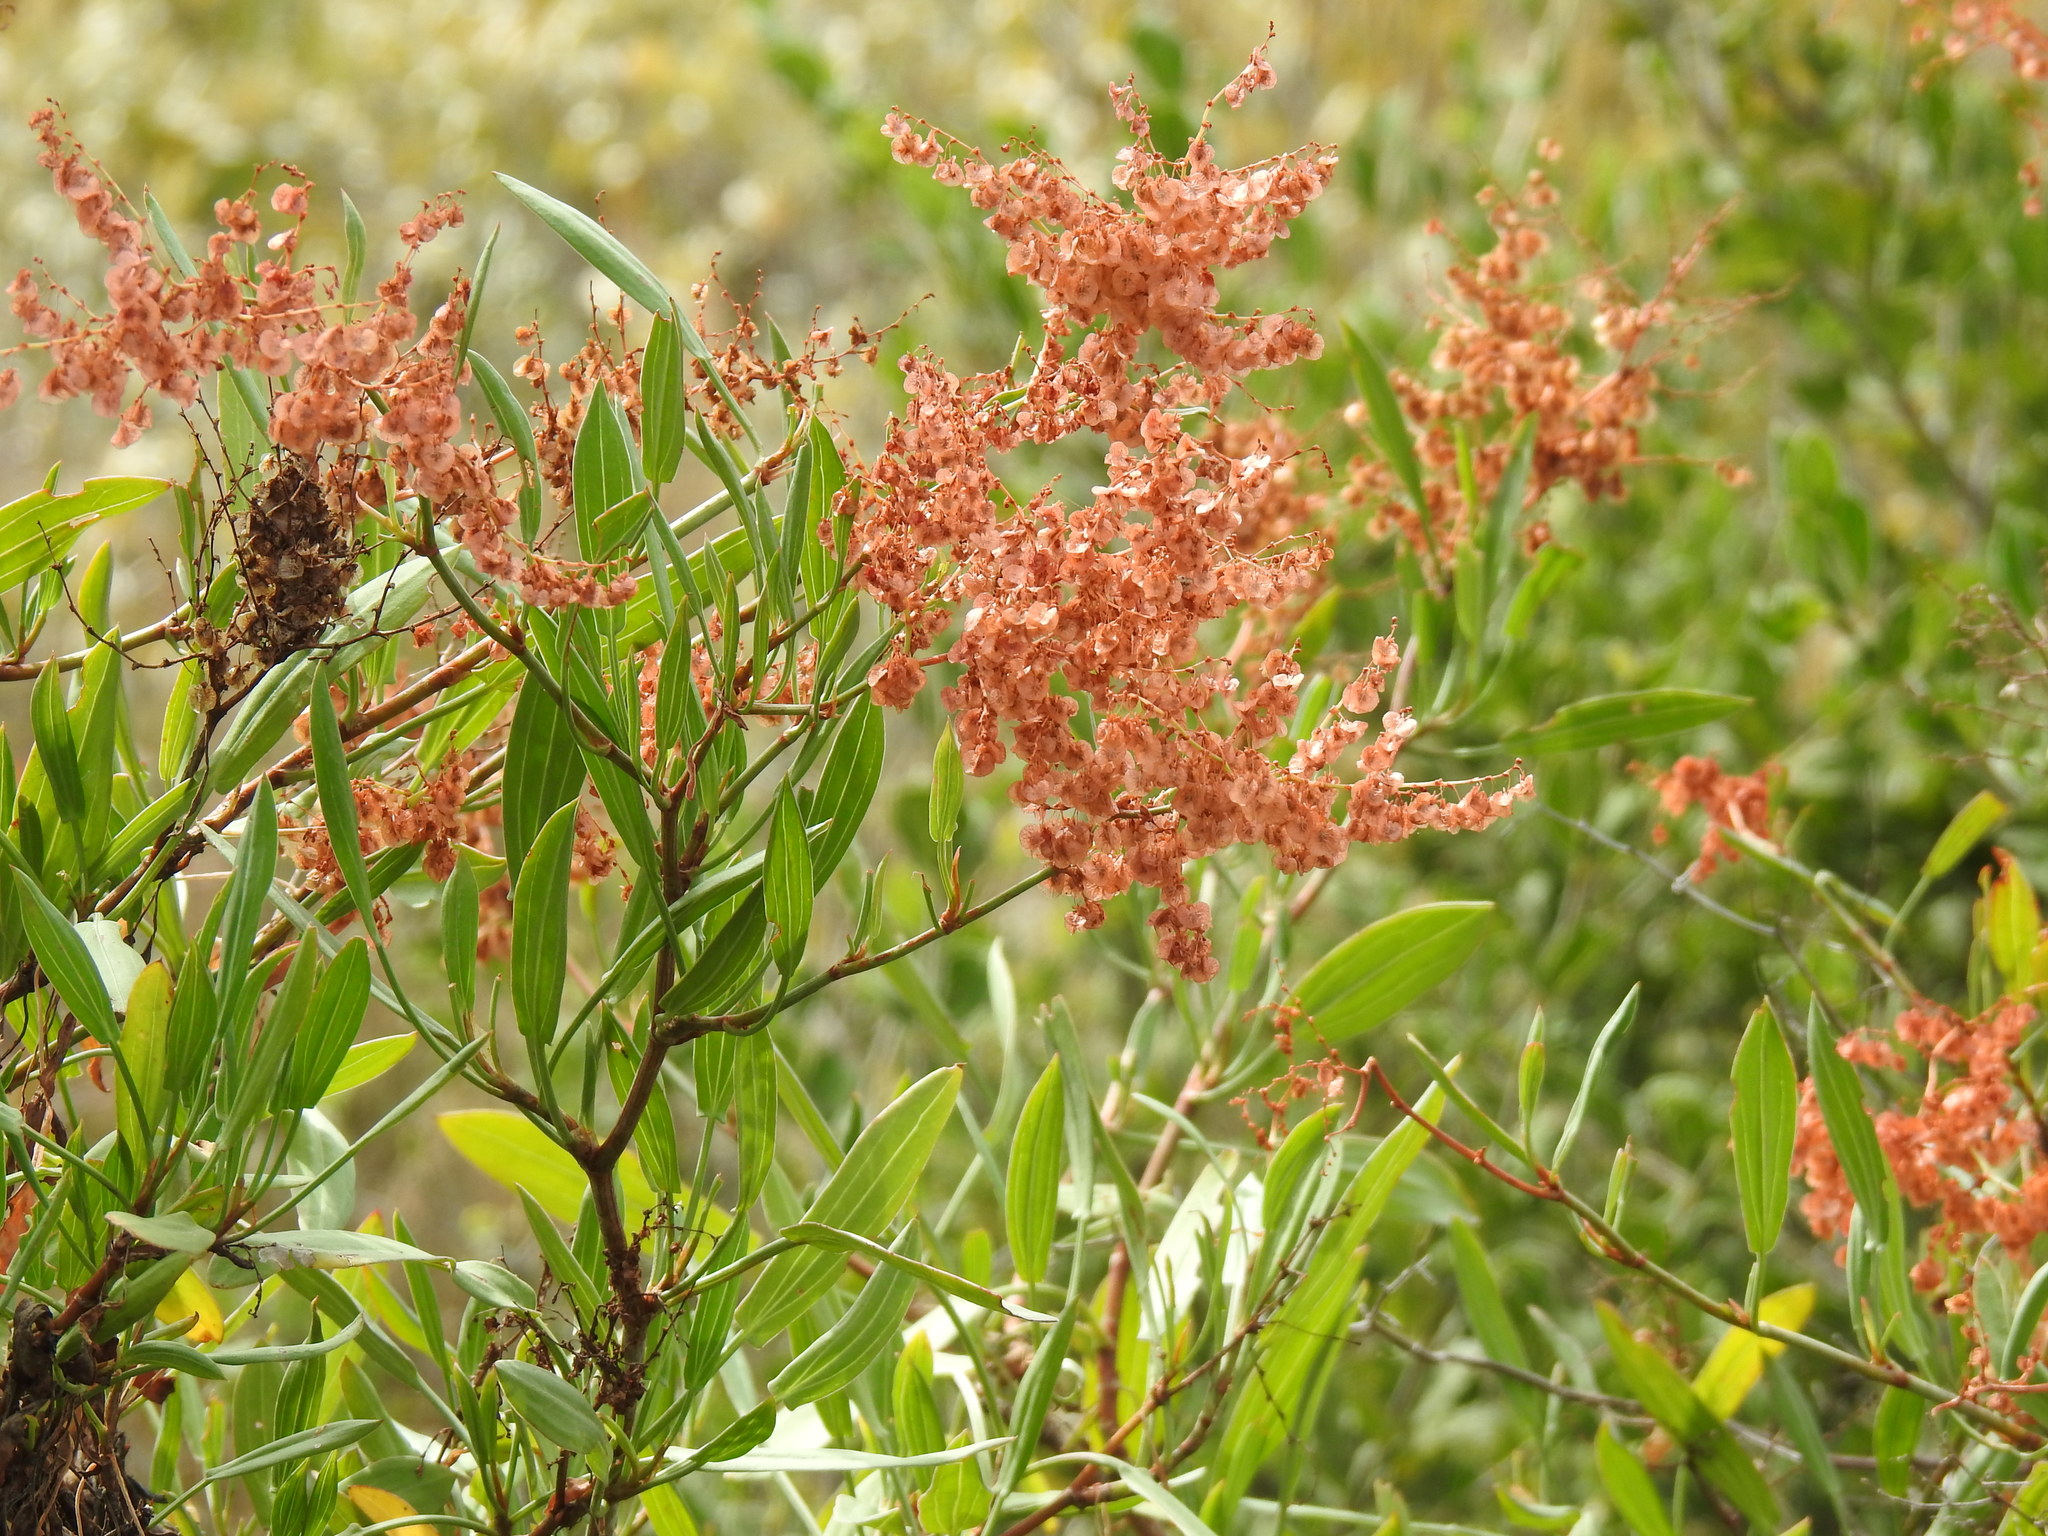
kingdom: Plantae
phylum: Tracheophyta
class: Magnoliopsida
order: Sapindales
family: Sapindaceae
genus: Dodonaea
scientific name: Dodonaea viscosa
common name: Hopbush
